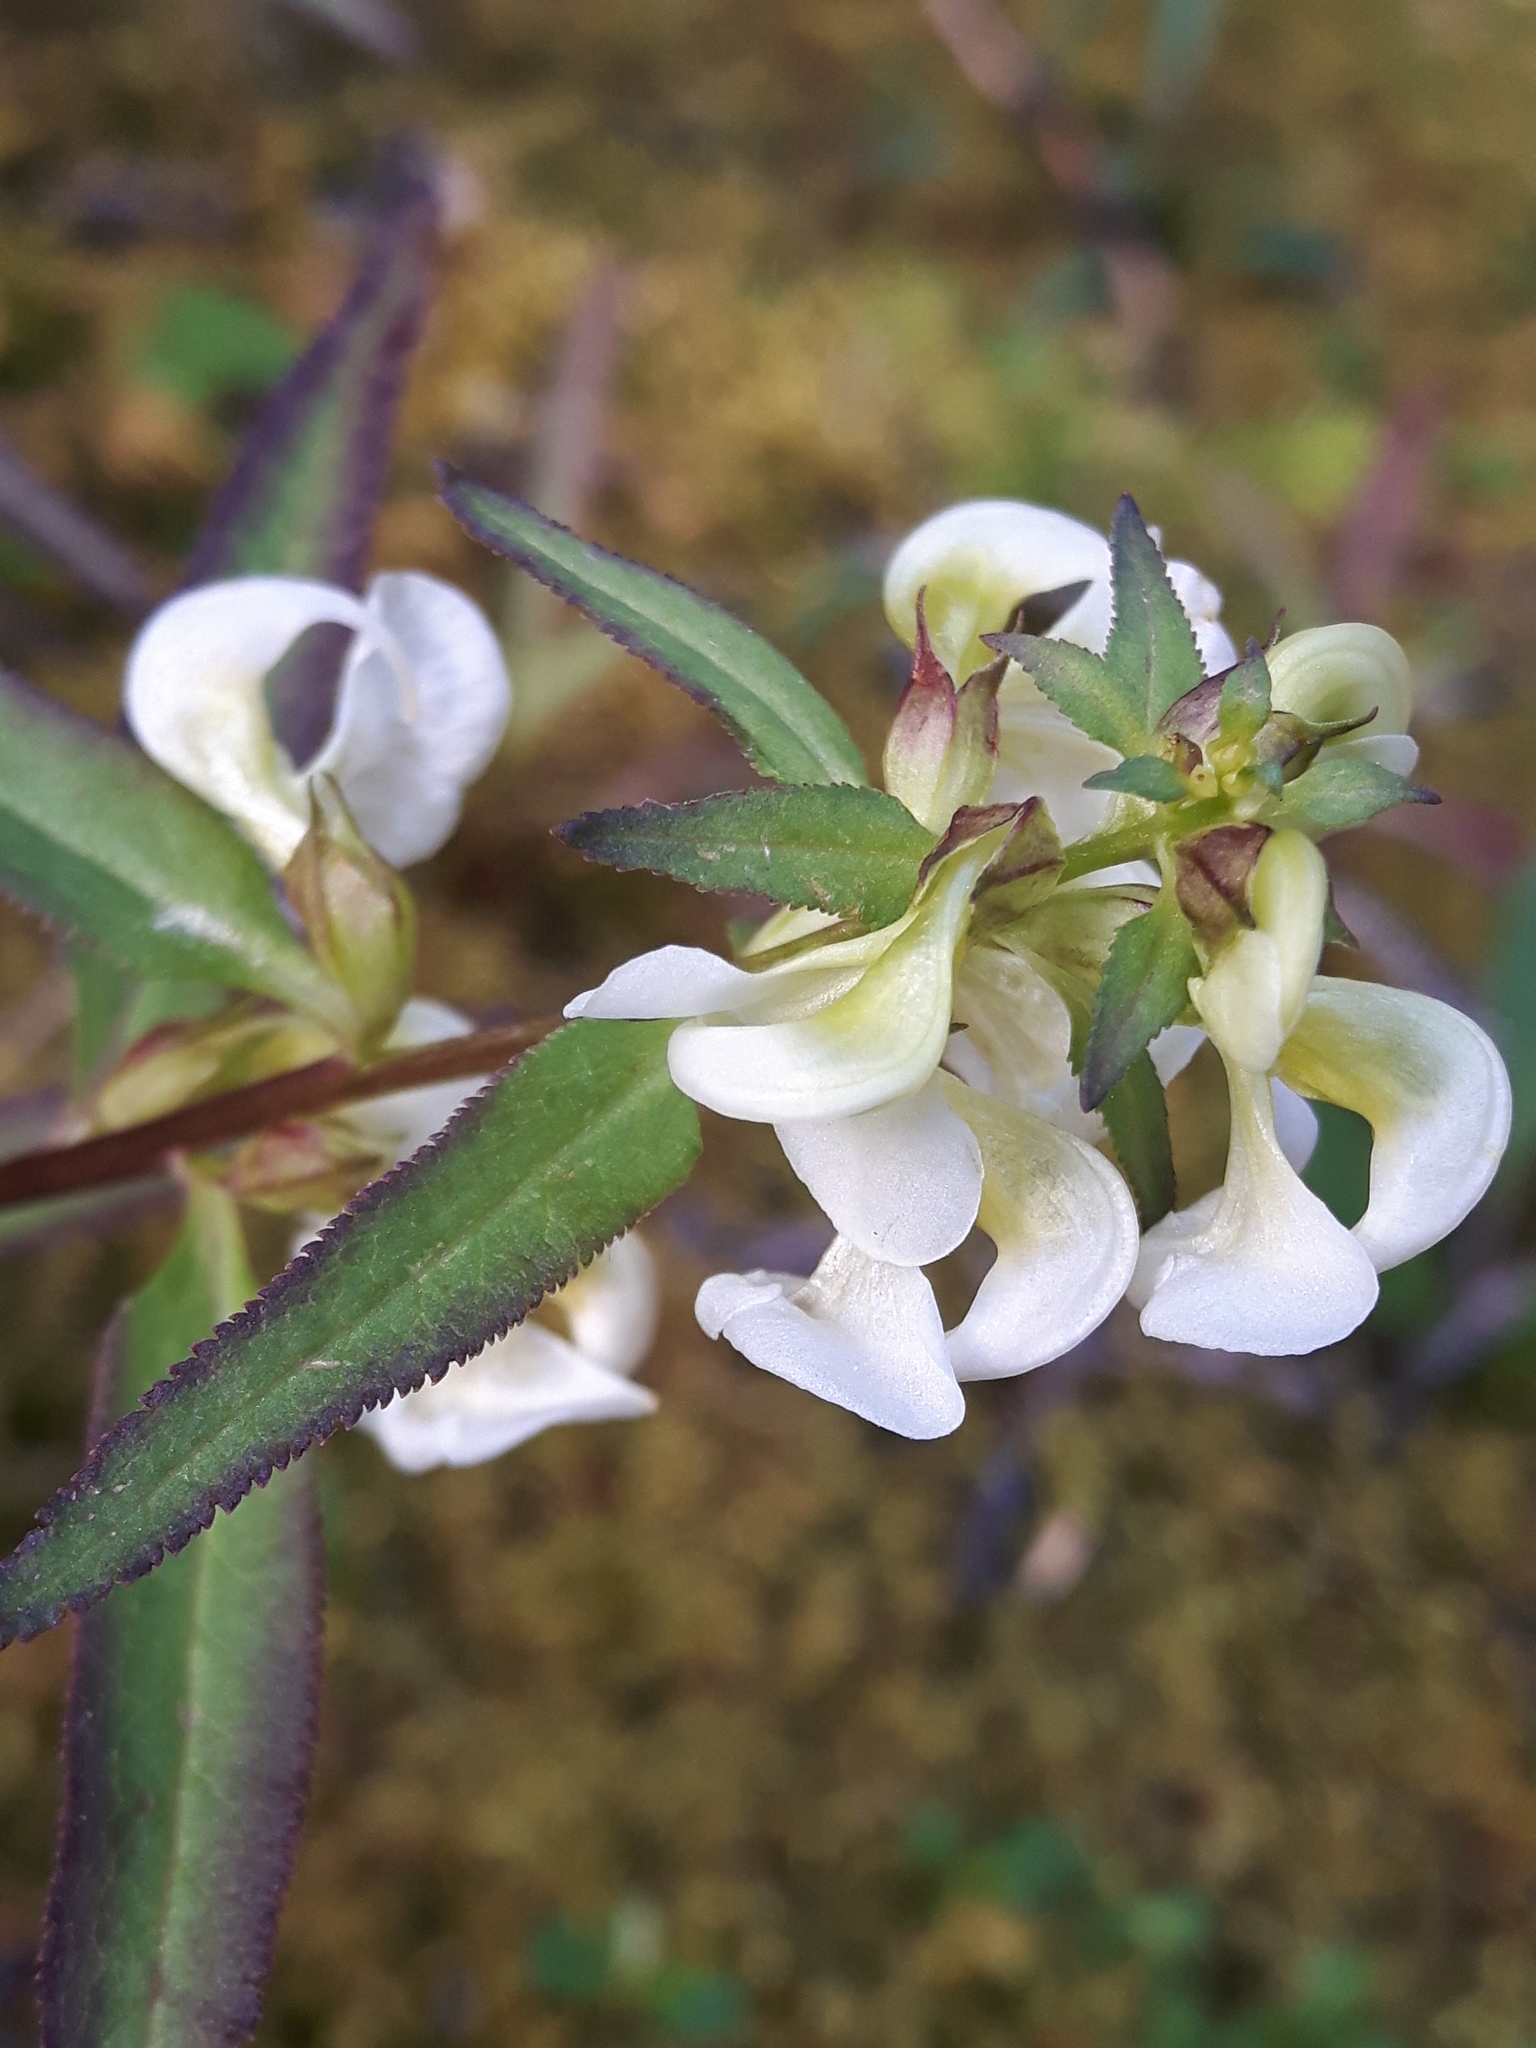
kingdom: Plantae
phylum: Tracheophyta
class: Magnoliopsida
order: Lamiales
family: Orobanchaceae
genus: Pedicularis
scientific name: Pedicularis racemosa
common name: Leafy lousewort
